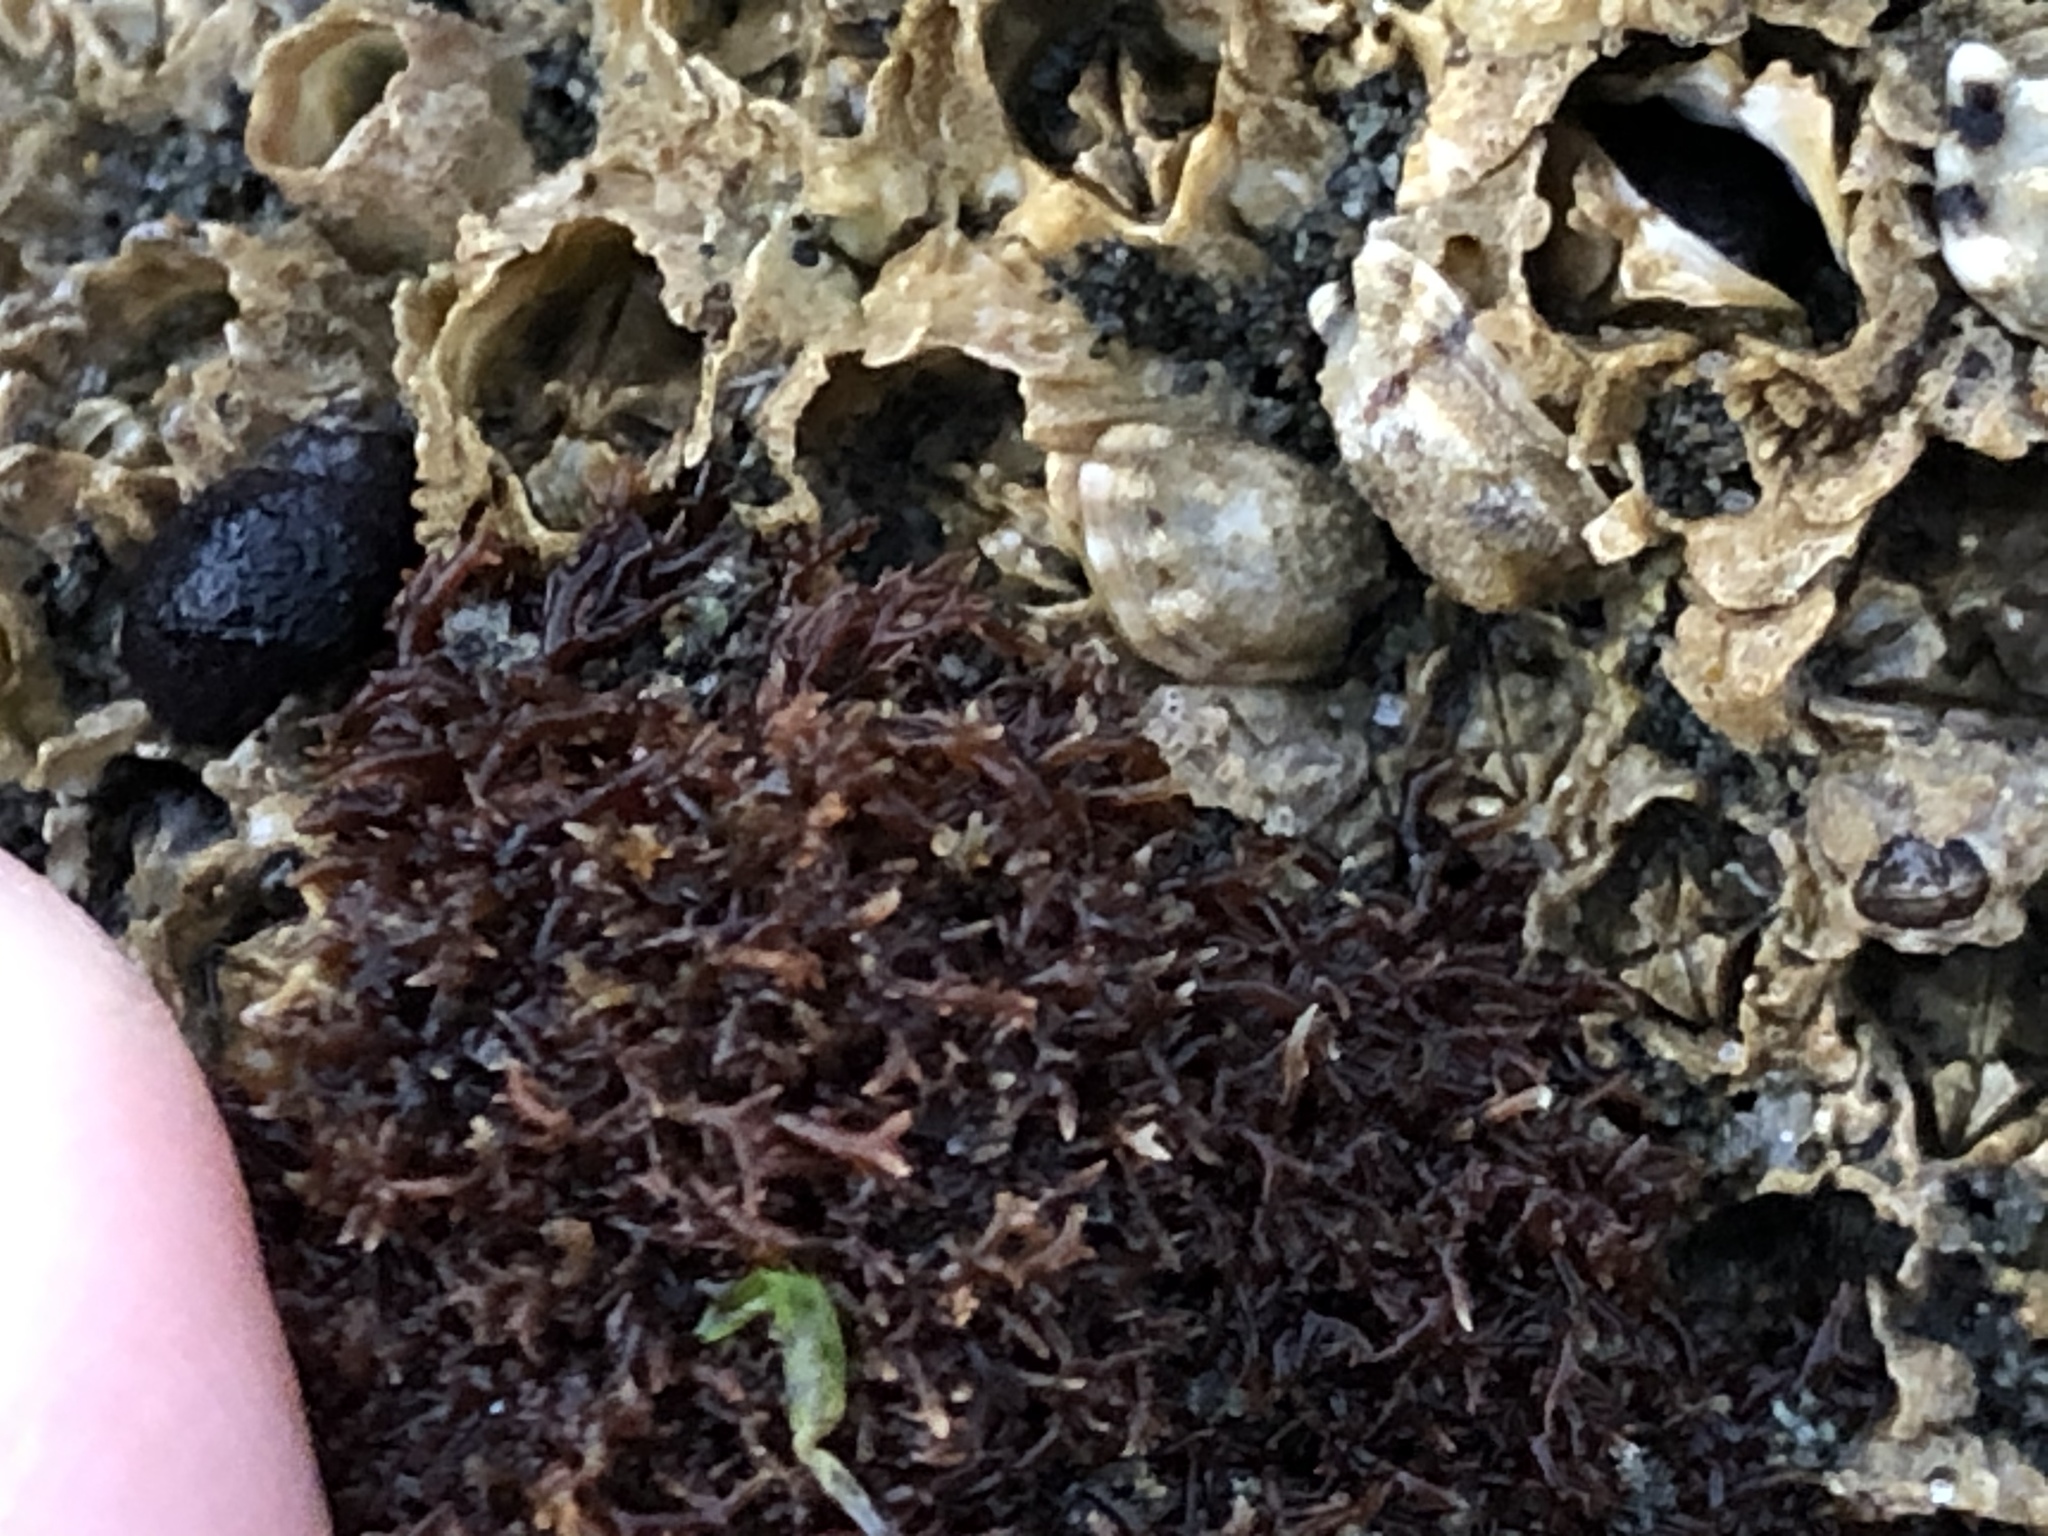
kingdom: Plantae
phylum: Rhodophyta
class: Florideophyceae
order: Gigartinales
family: Caulacanthaceae
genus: Caulacanthus
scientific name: Caulacanthus ustulatus
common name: Red algae
